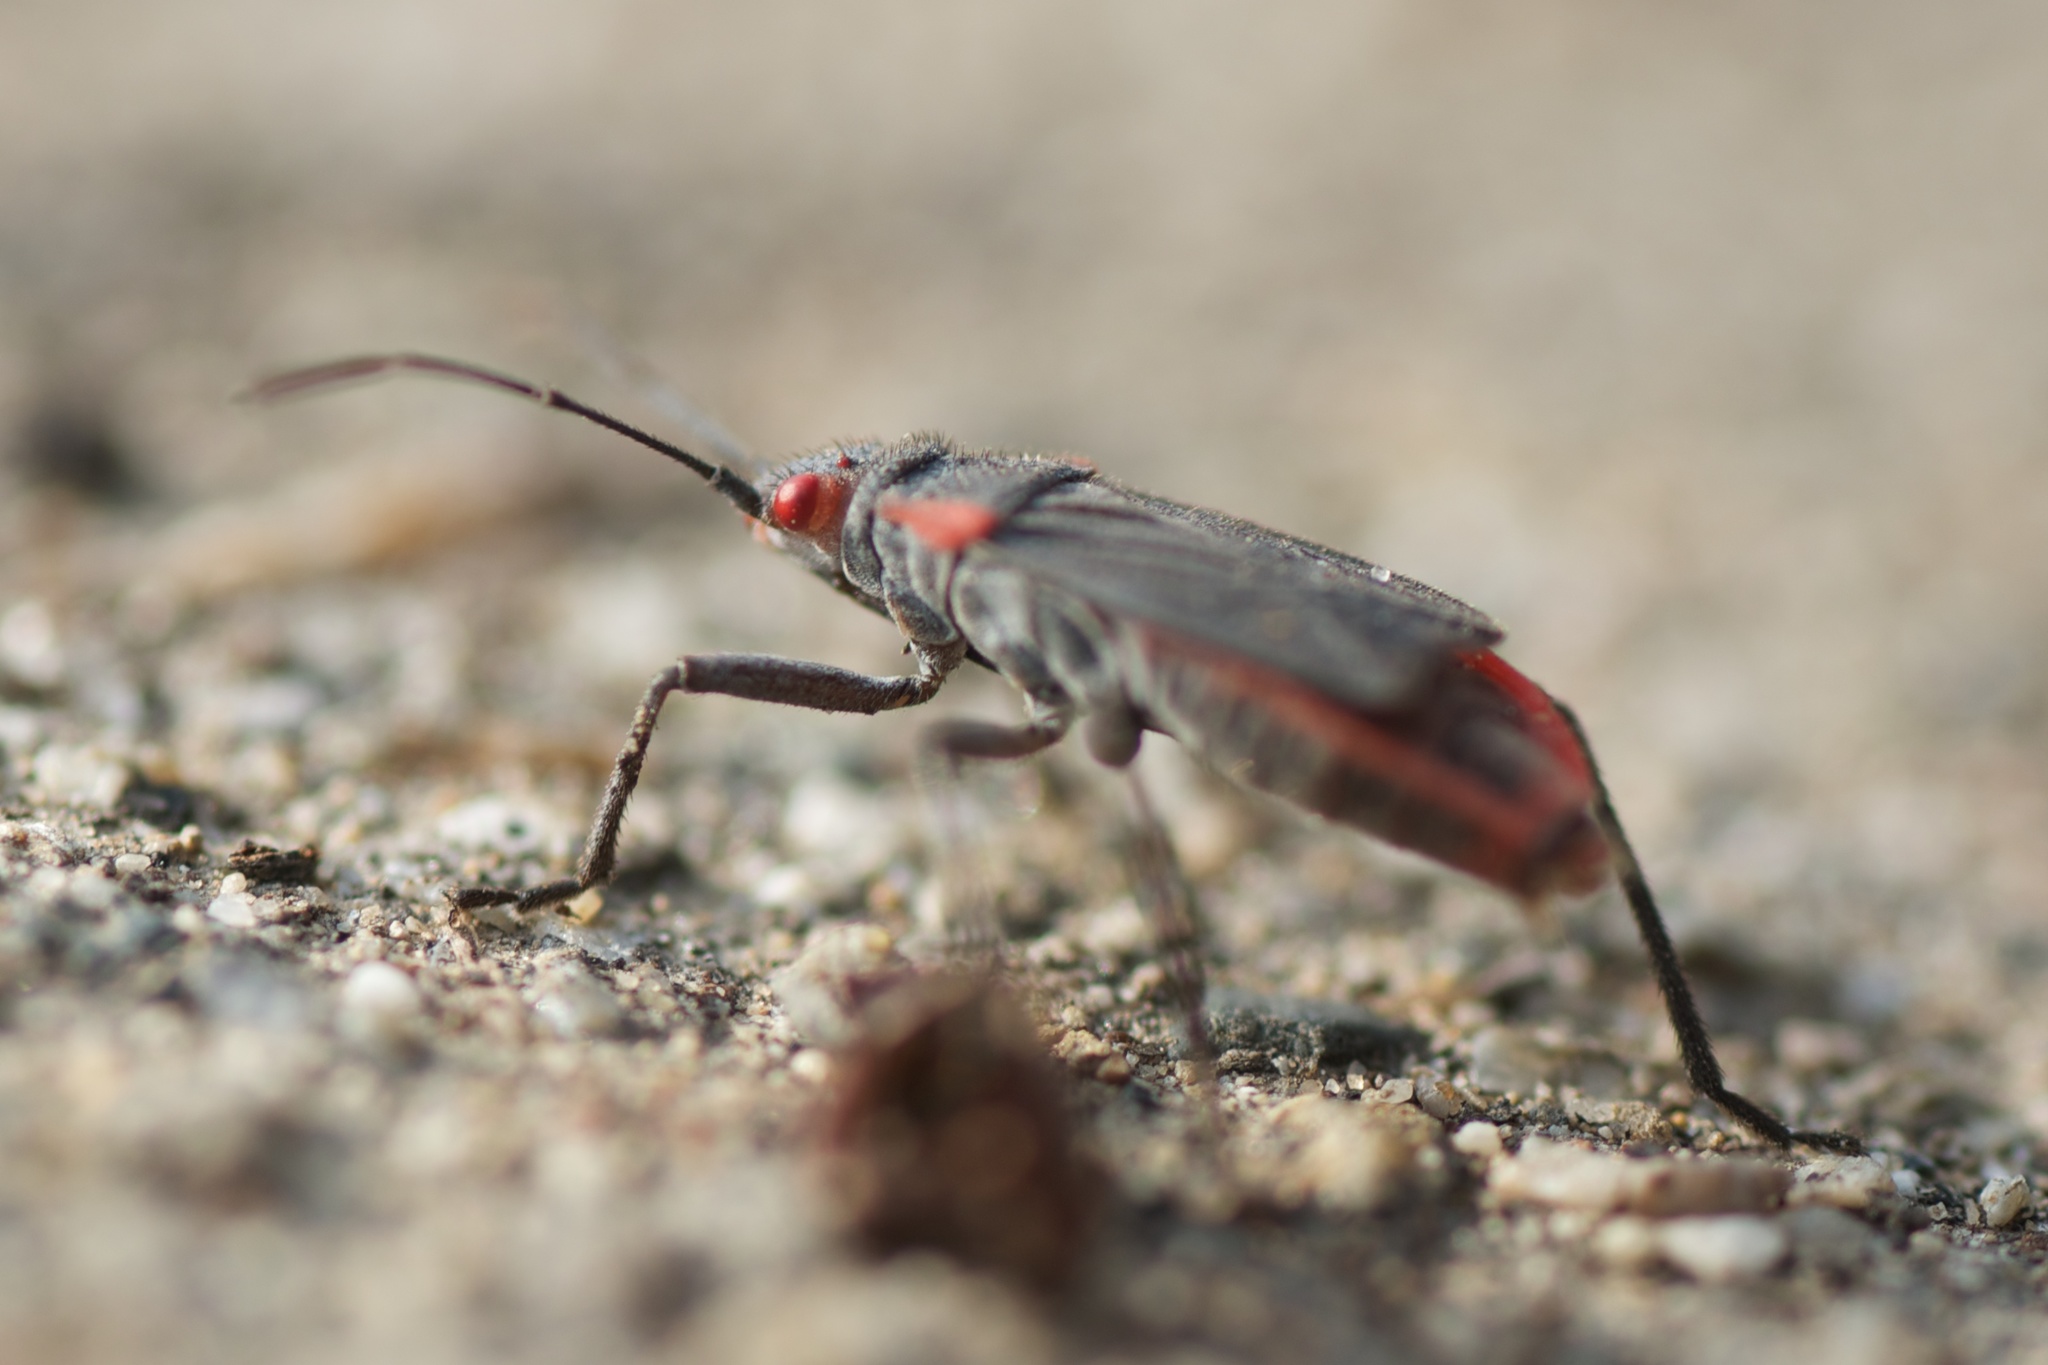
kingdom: Animalia
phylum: Arthropoda
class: Insecta
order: Hemiptera
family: Rhopalidae
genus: Jadera
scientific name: Jadera haematoloma
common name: Red-shouldered bug
